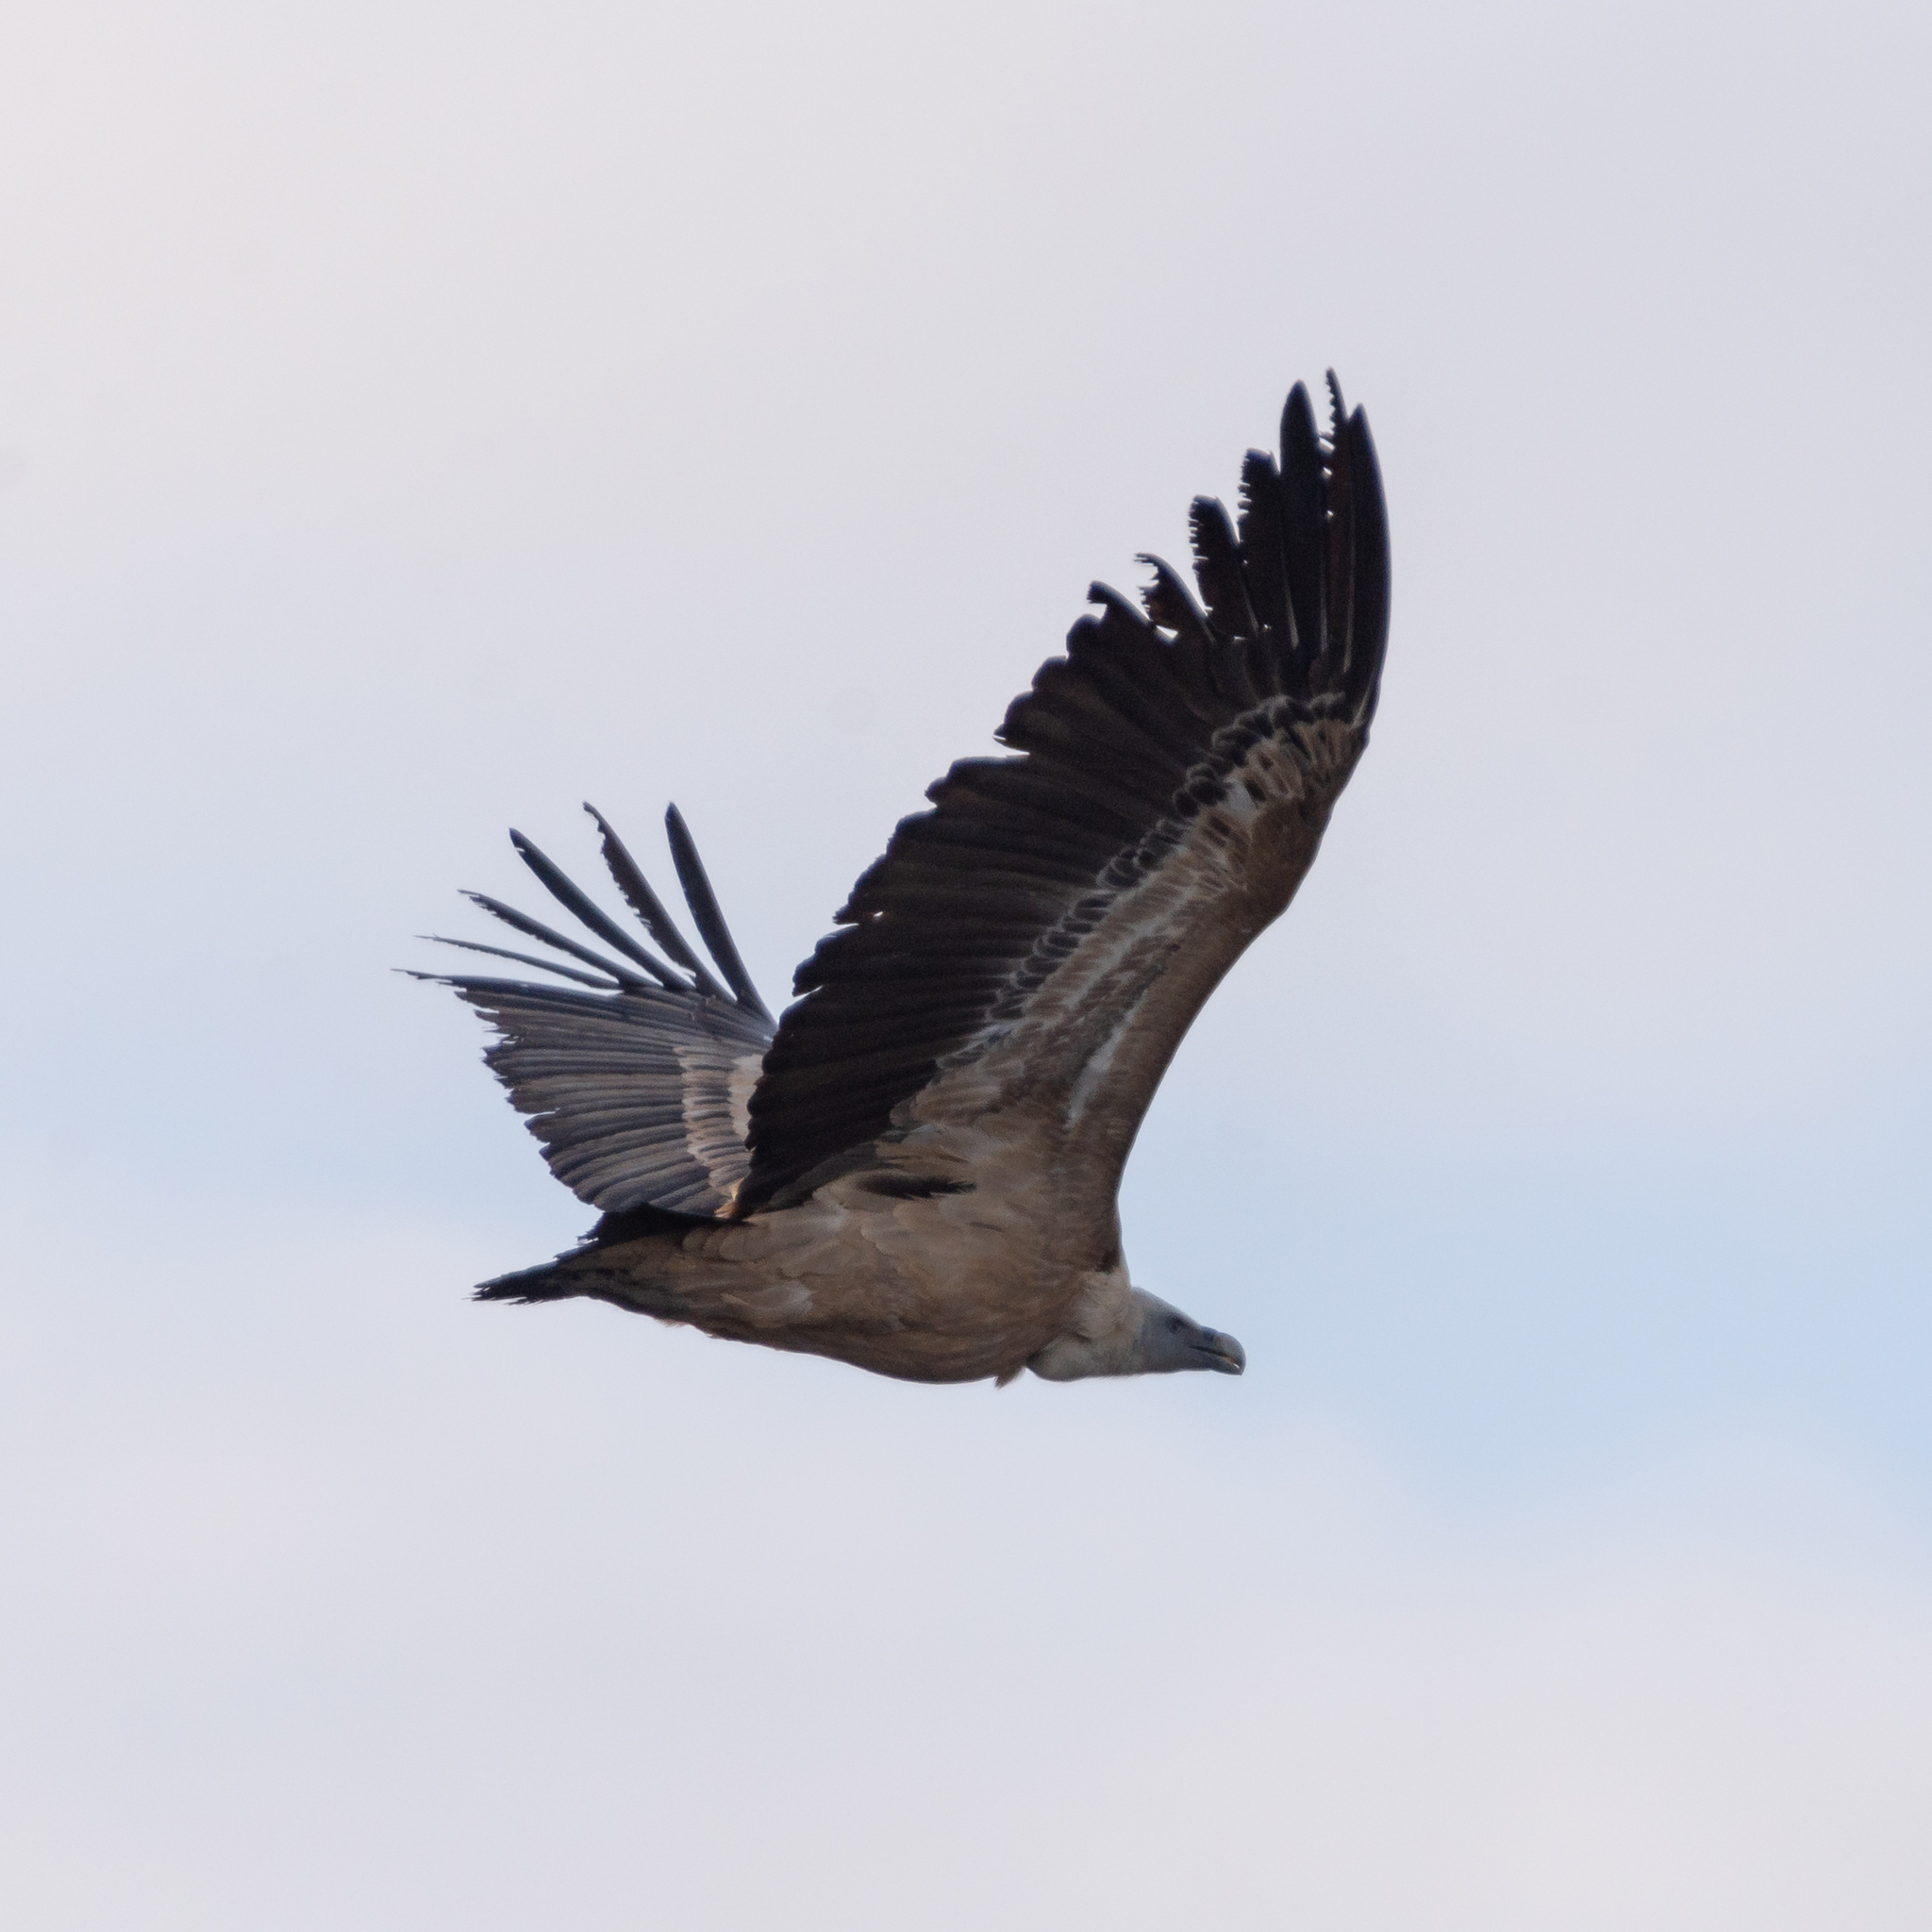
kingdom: Animalia
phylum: Chordata
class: Aves
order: Accipitriformes
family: Accipitridae
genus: Gyps
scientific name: Gyps fulvus
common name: Griffon vulture
